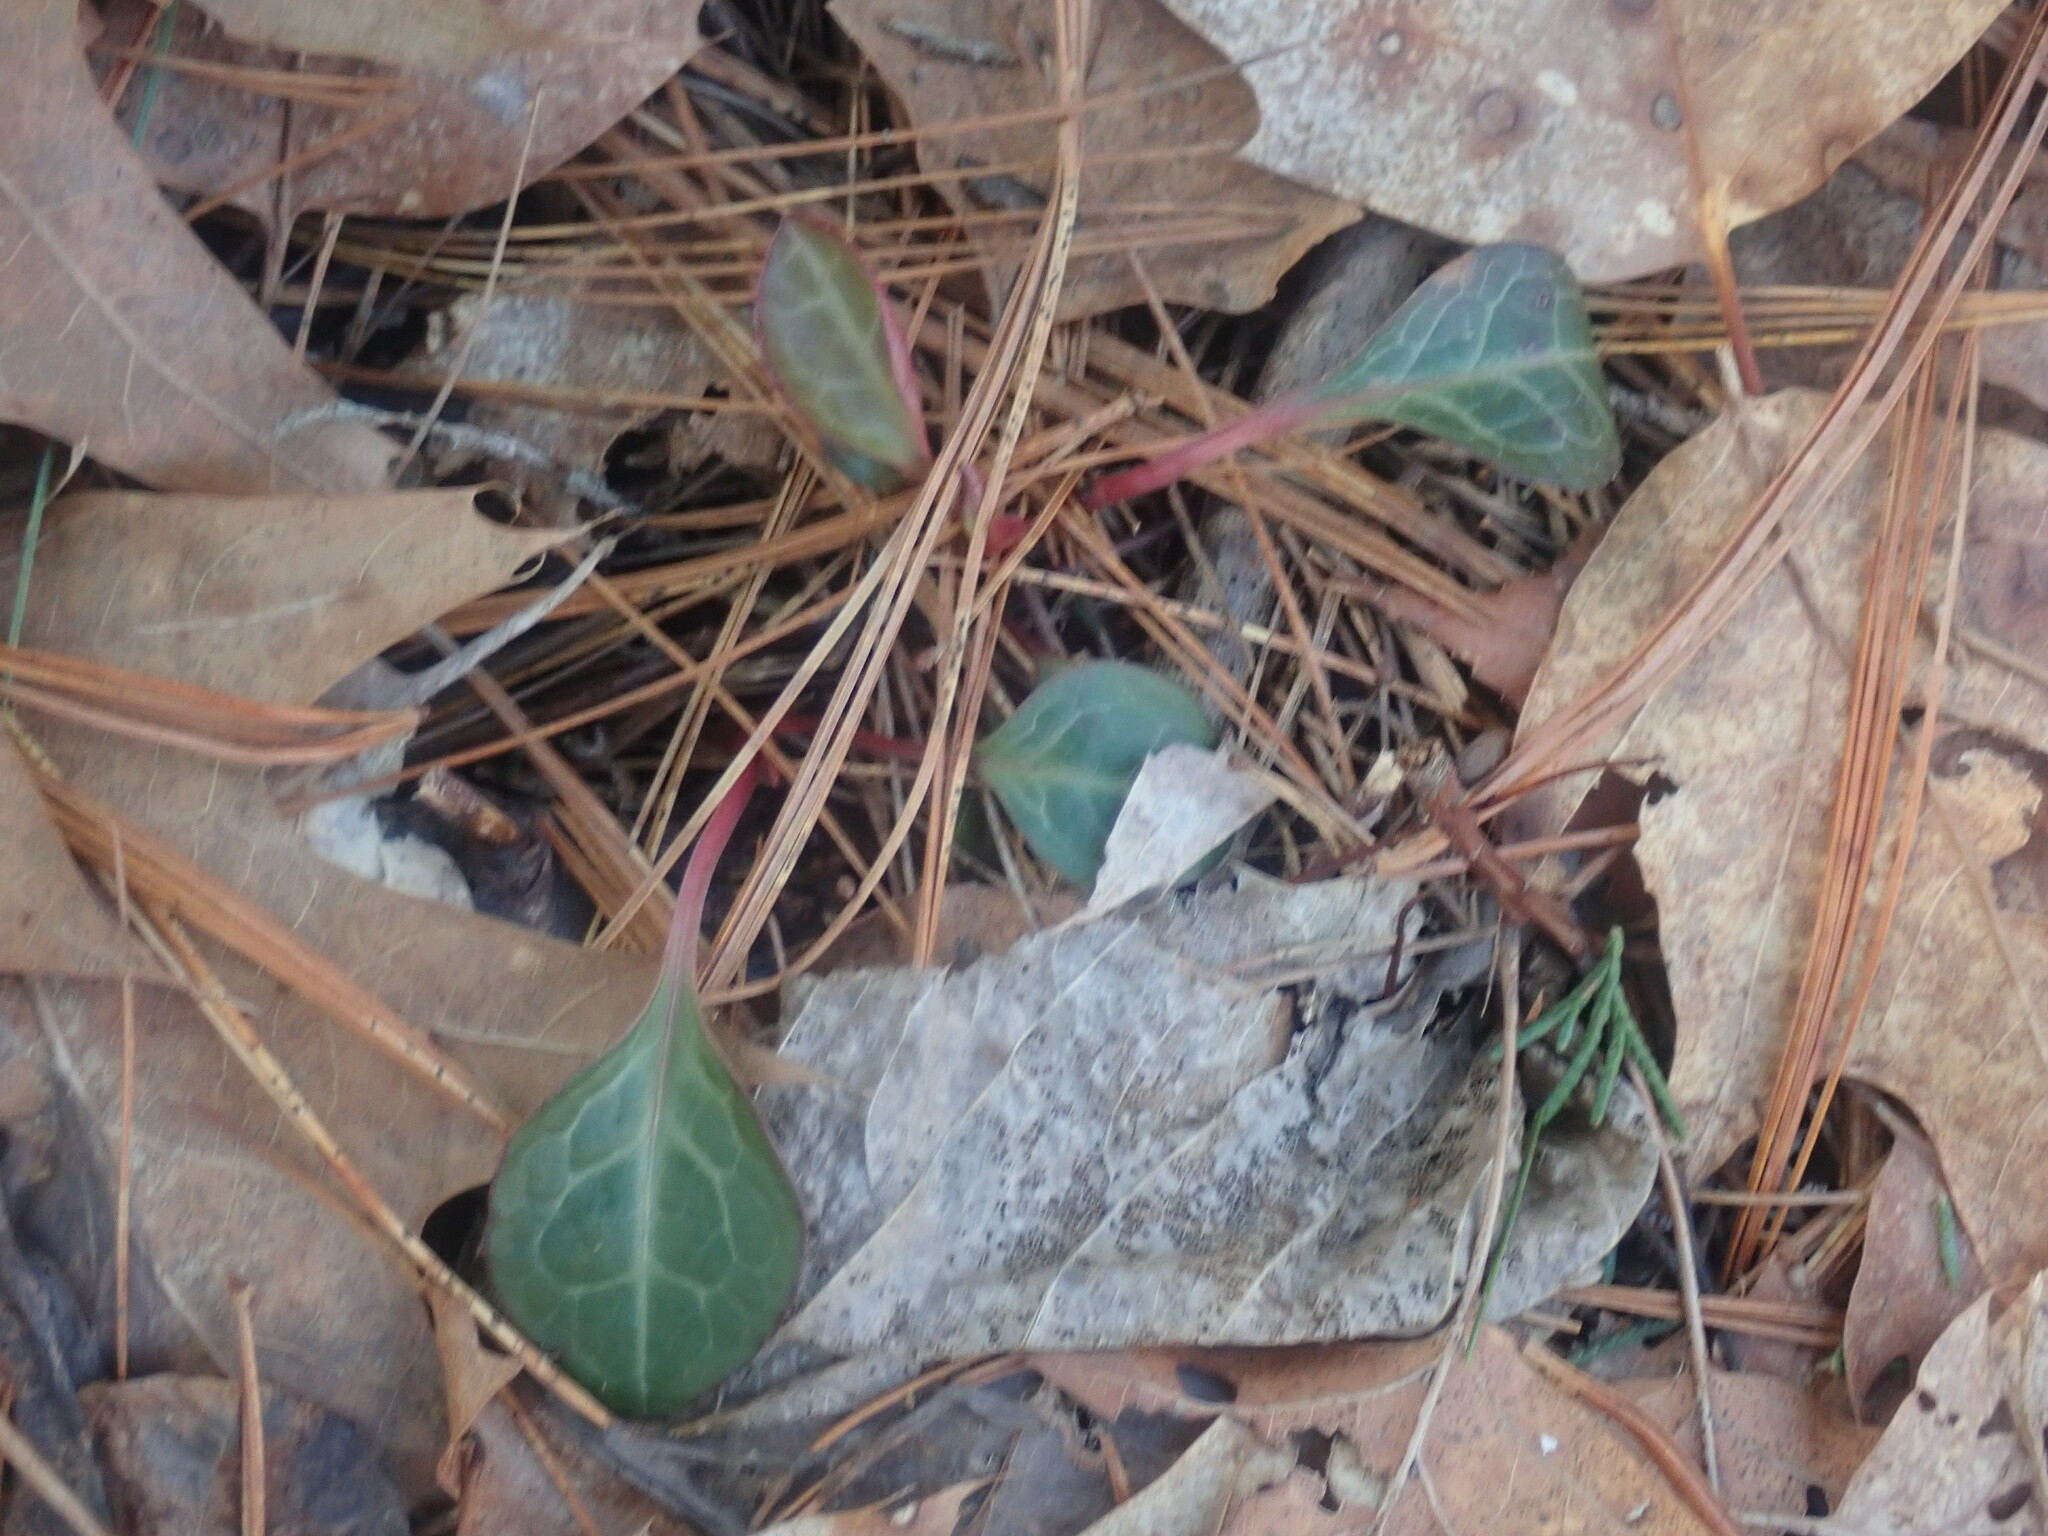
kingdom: Plantae
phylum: Tracheophyta
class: Magnoliopsida
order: Ericales
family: Ericaceae
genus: Pyrola
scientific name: Pyrola americana
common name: American wintergreen
